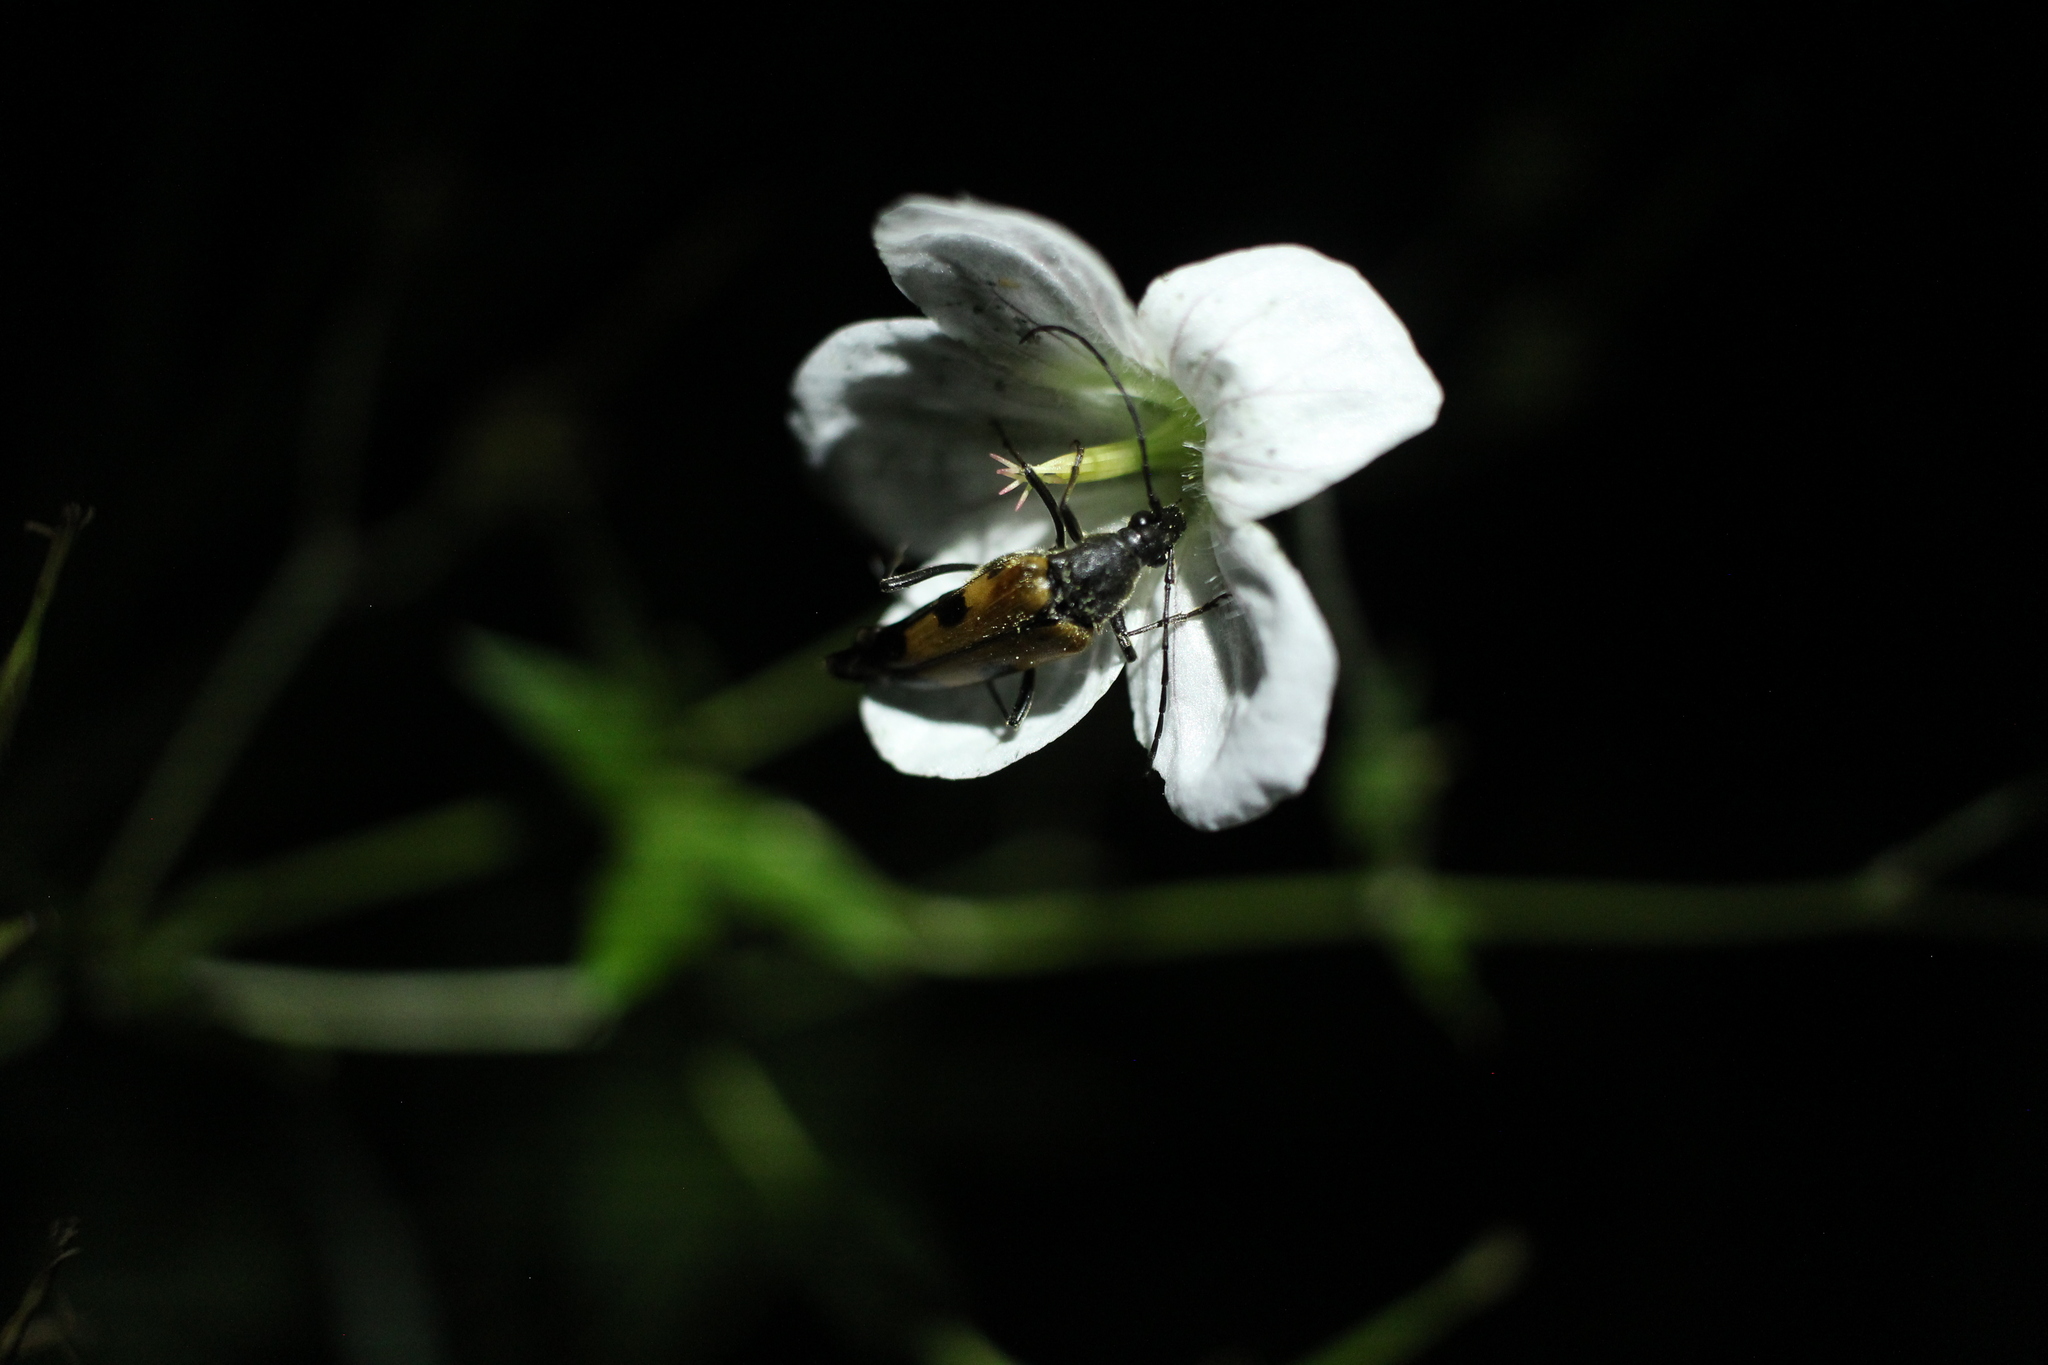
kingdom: Animalia
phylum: Arthropoda
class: Insecta
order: Coleoptera
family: Cerambycidae
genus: Etorofus
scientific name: Etorofus
